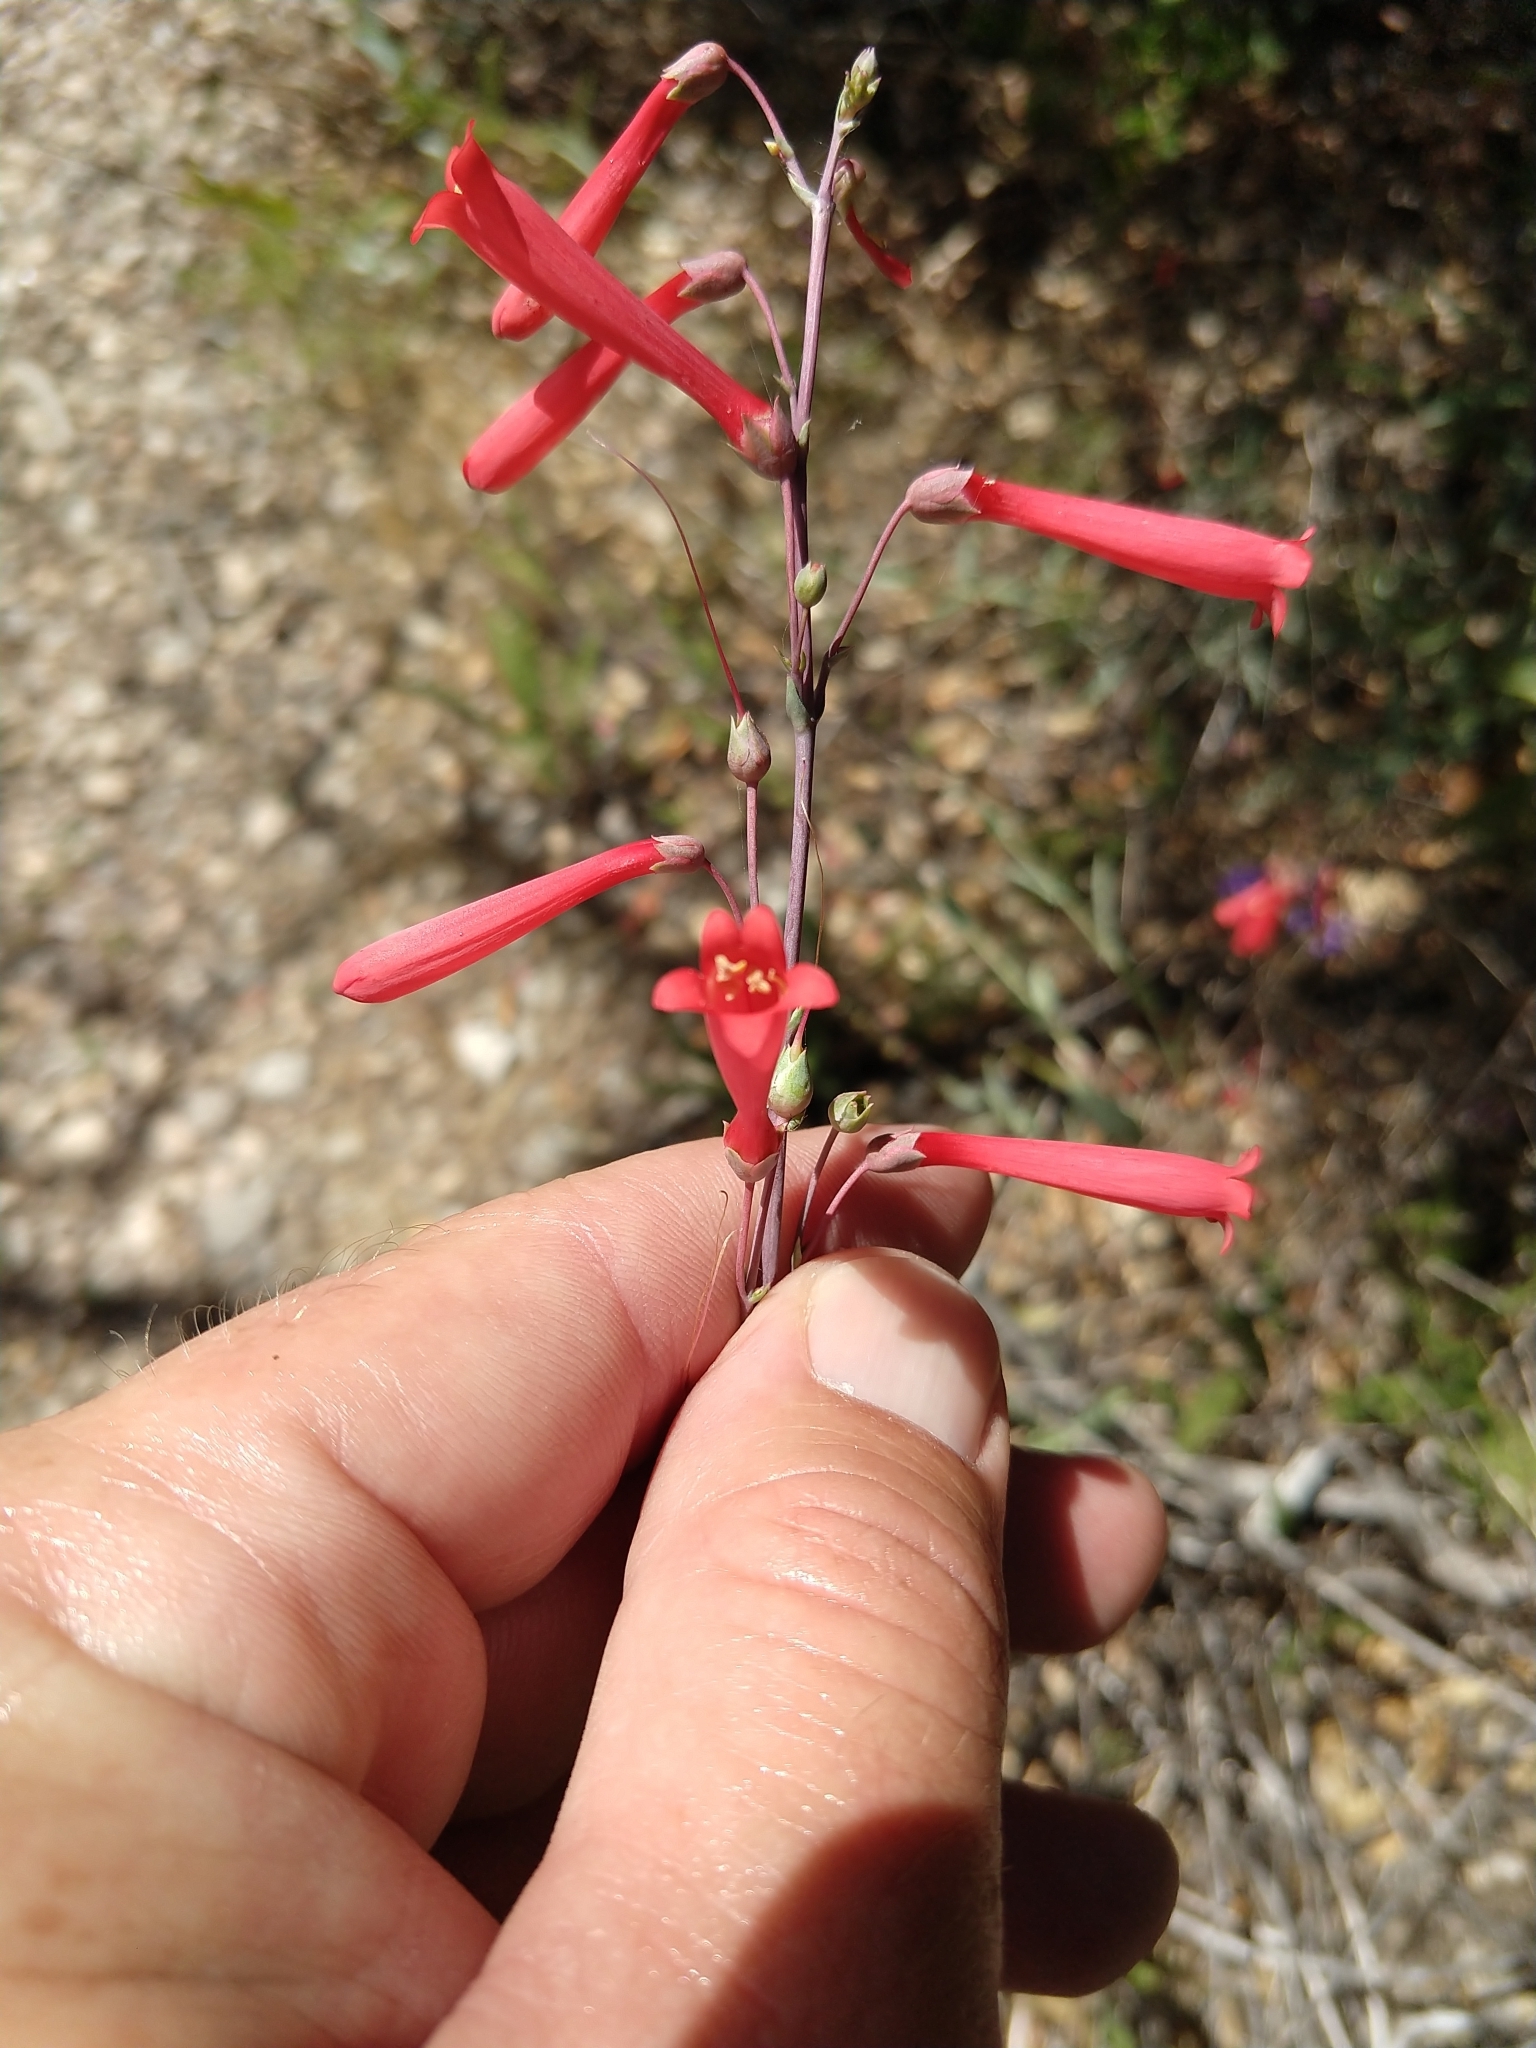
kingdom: Plantae
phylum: Tracheophyta
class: Magnoliopsida
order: Lamiales
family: Plantaginaceae
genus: Penstemon
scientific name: Penstemon centranthifolius
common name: Scarlet bugler
